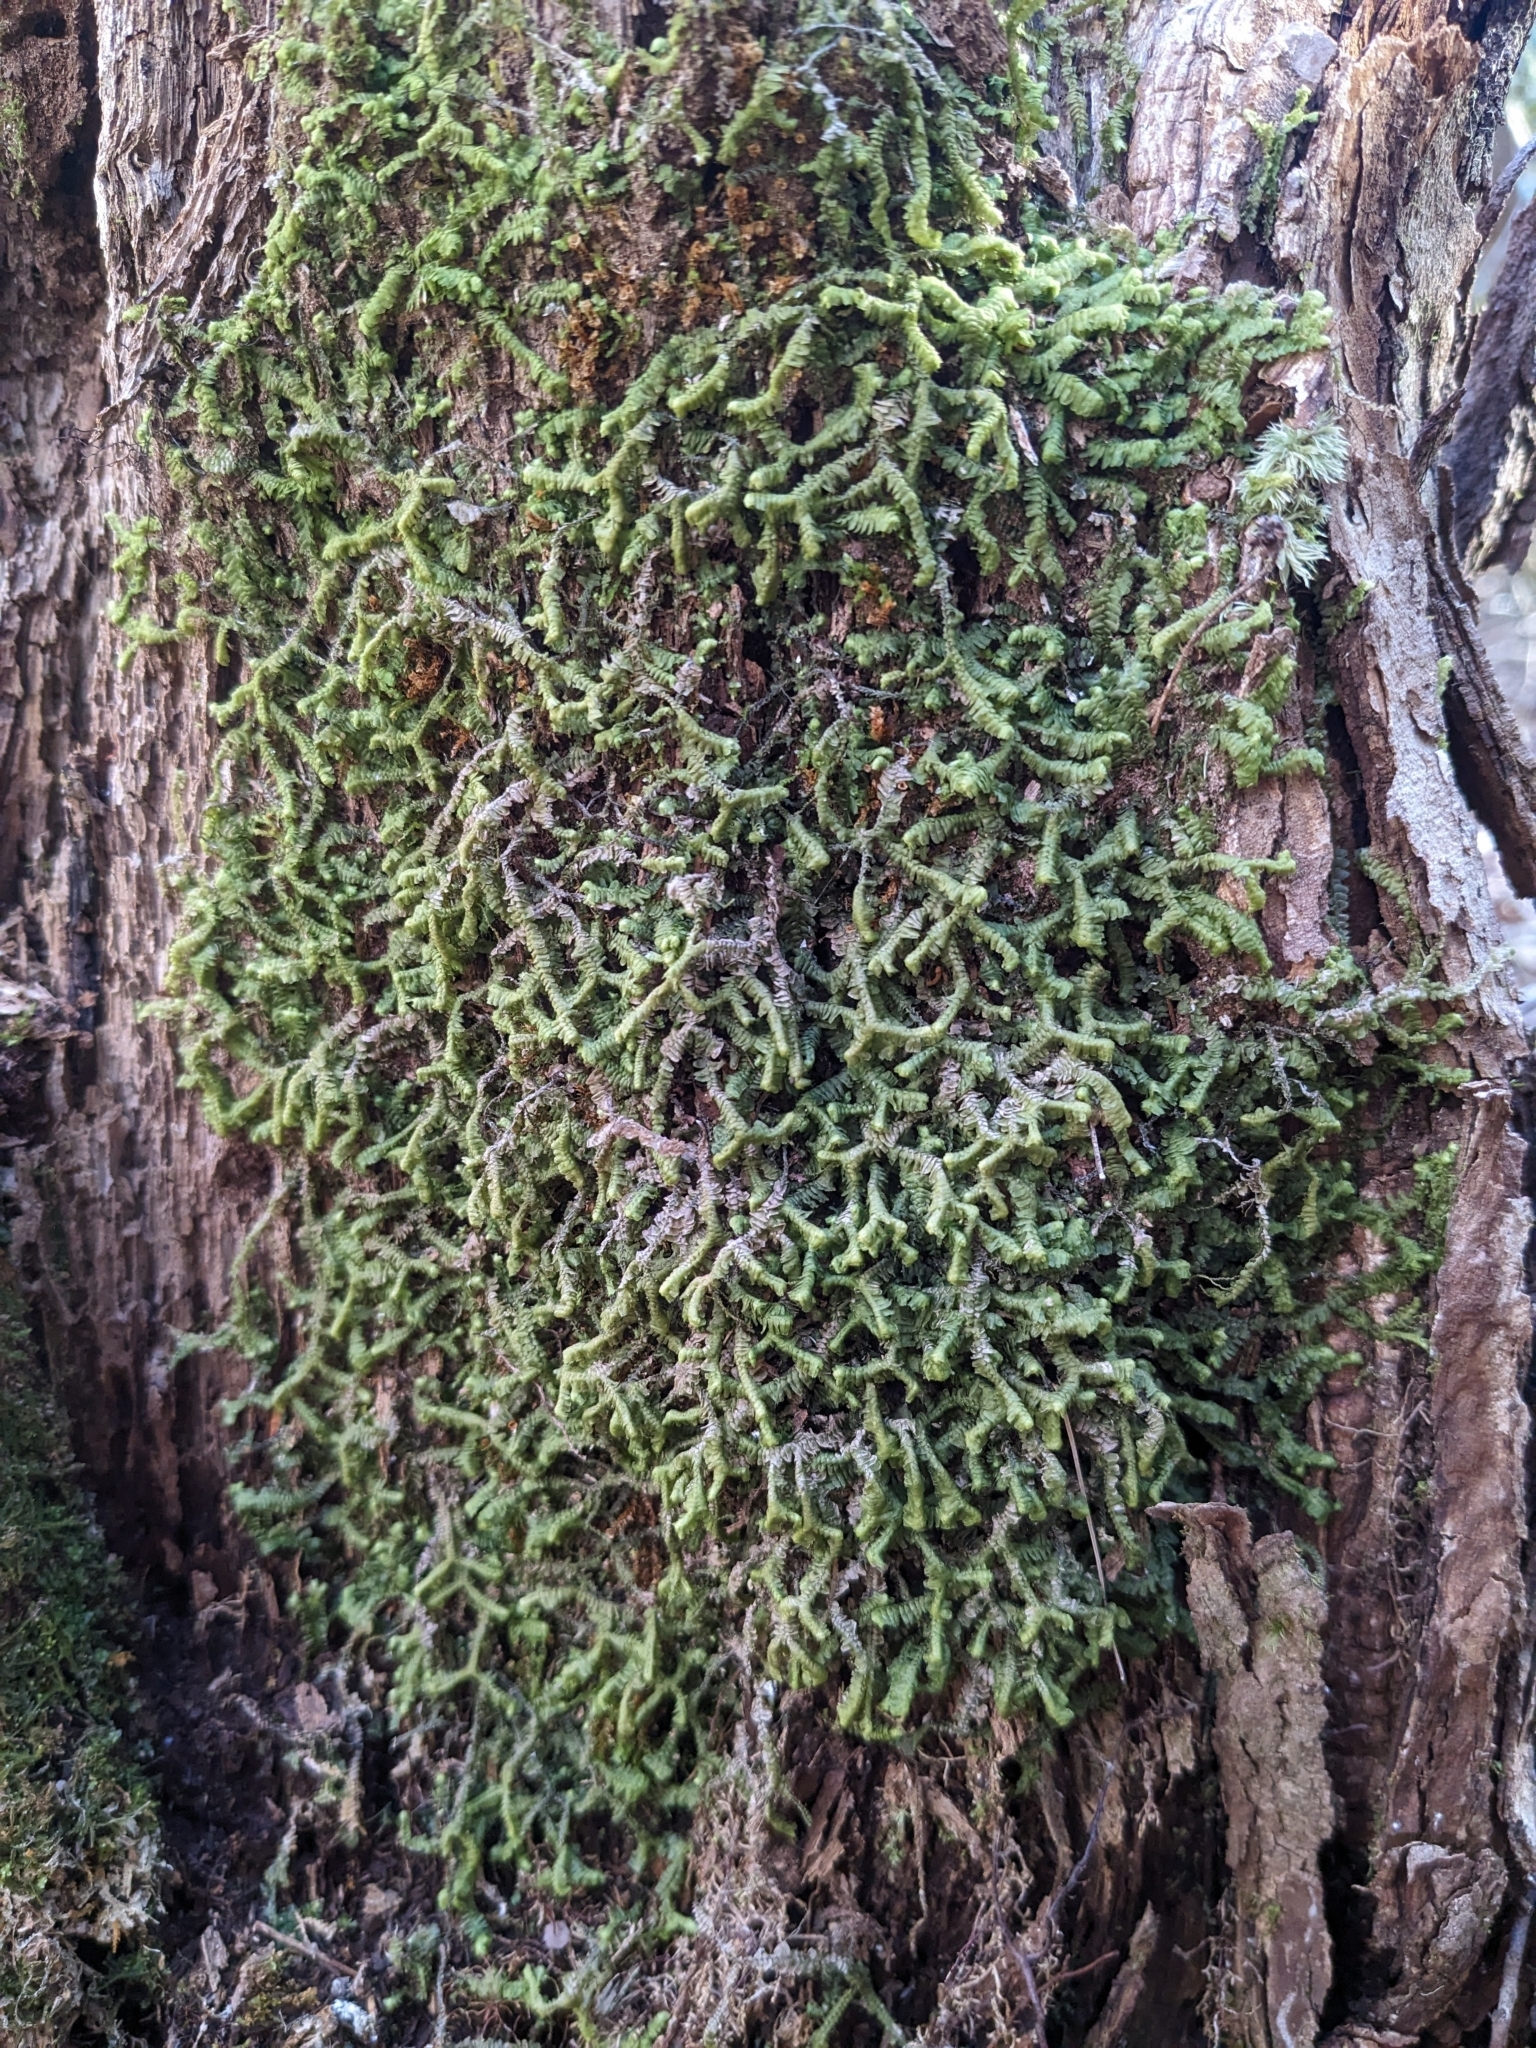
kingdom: Plantae
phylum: Marchantiophyta
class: Jungermanniopsida
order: Jungermanniales
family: Lepidoziaceae
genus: Bazzania
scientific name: Bazzania trilobata
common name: Three-lobed whipwort
